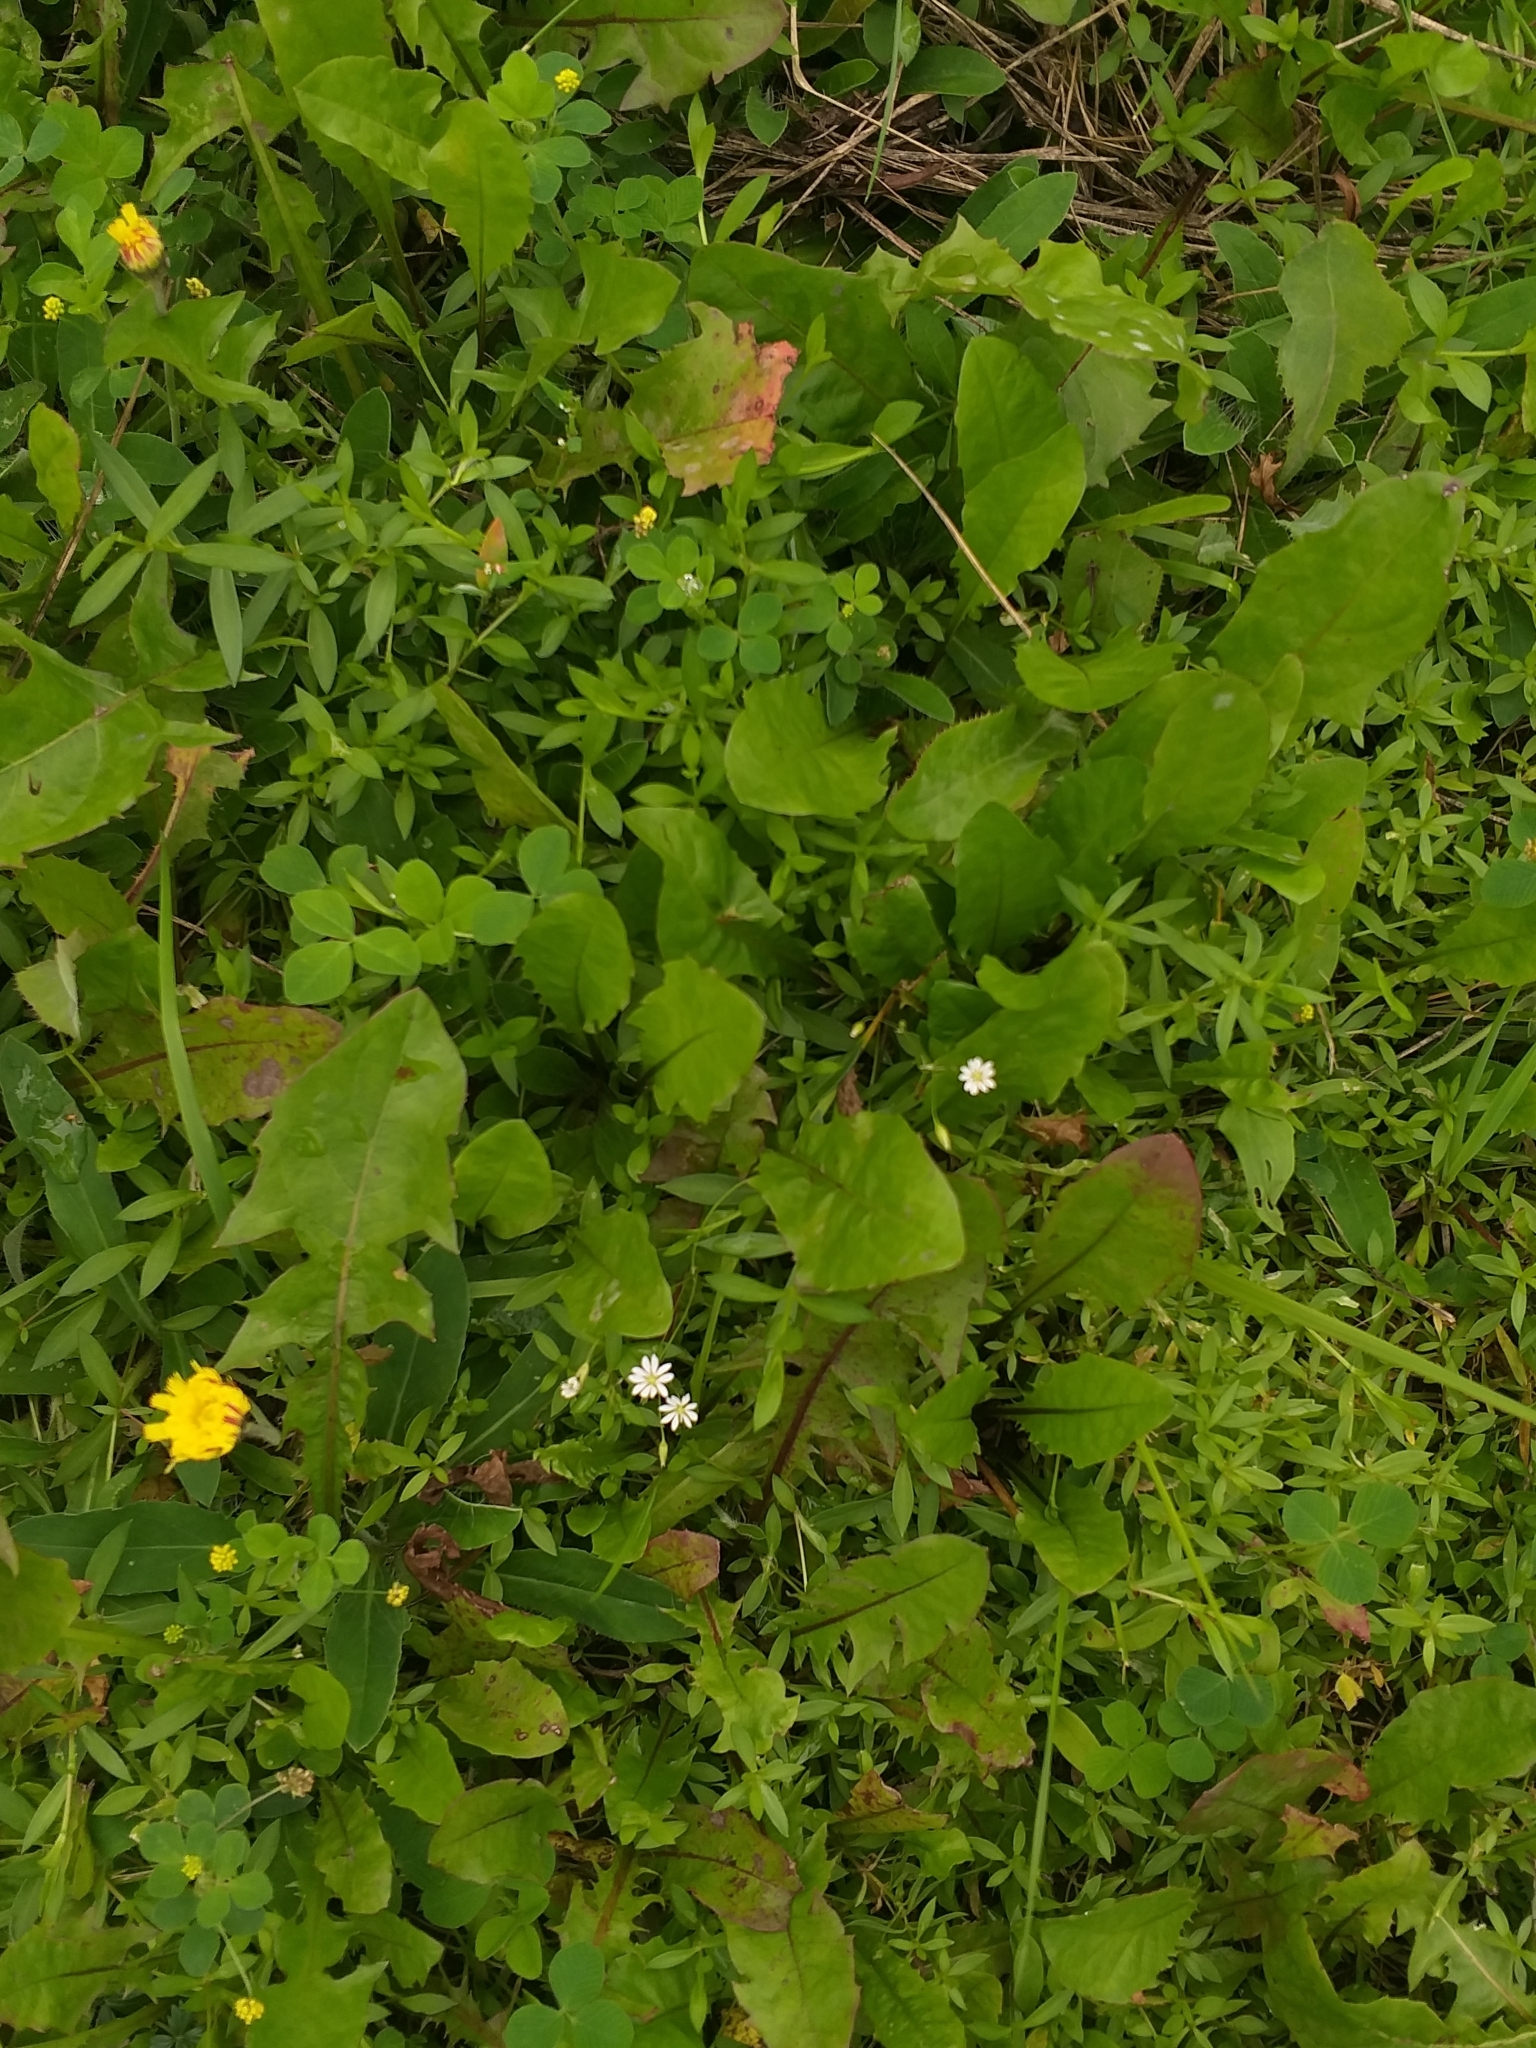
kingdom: Plantae
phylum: Tracheophyta
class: Magnoliopsida
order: Caryophyllales
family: Caryophyllaceae
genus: Stellaria
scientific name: Stellaria graminea
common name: Grass-like starwort
